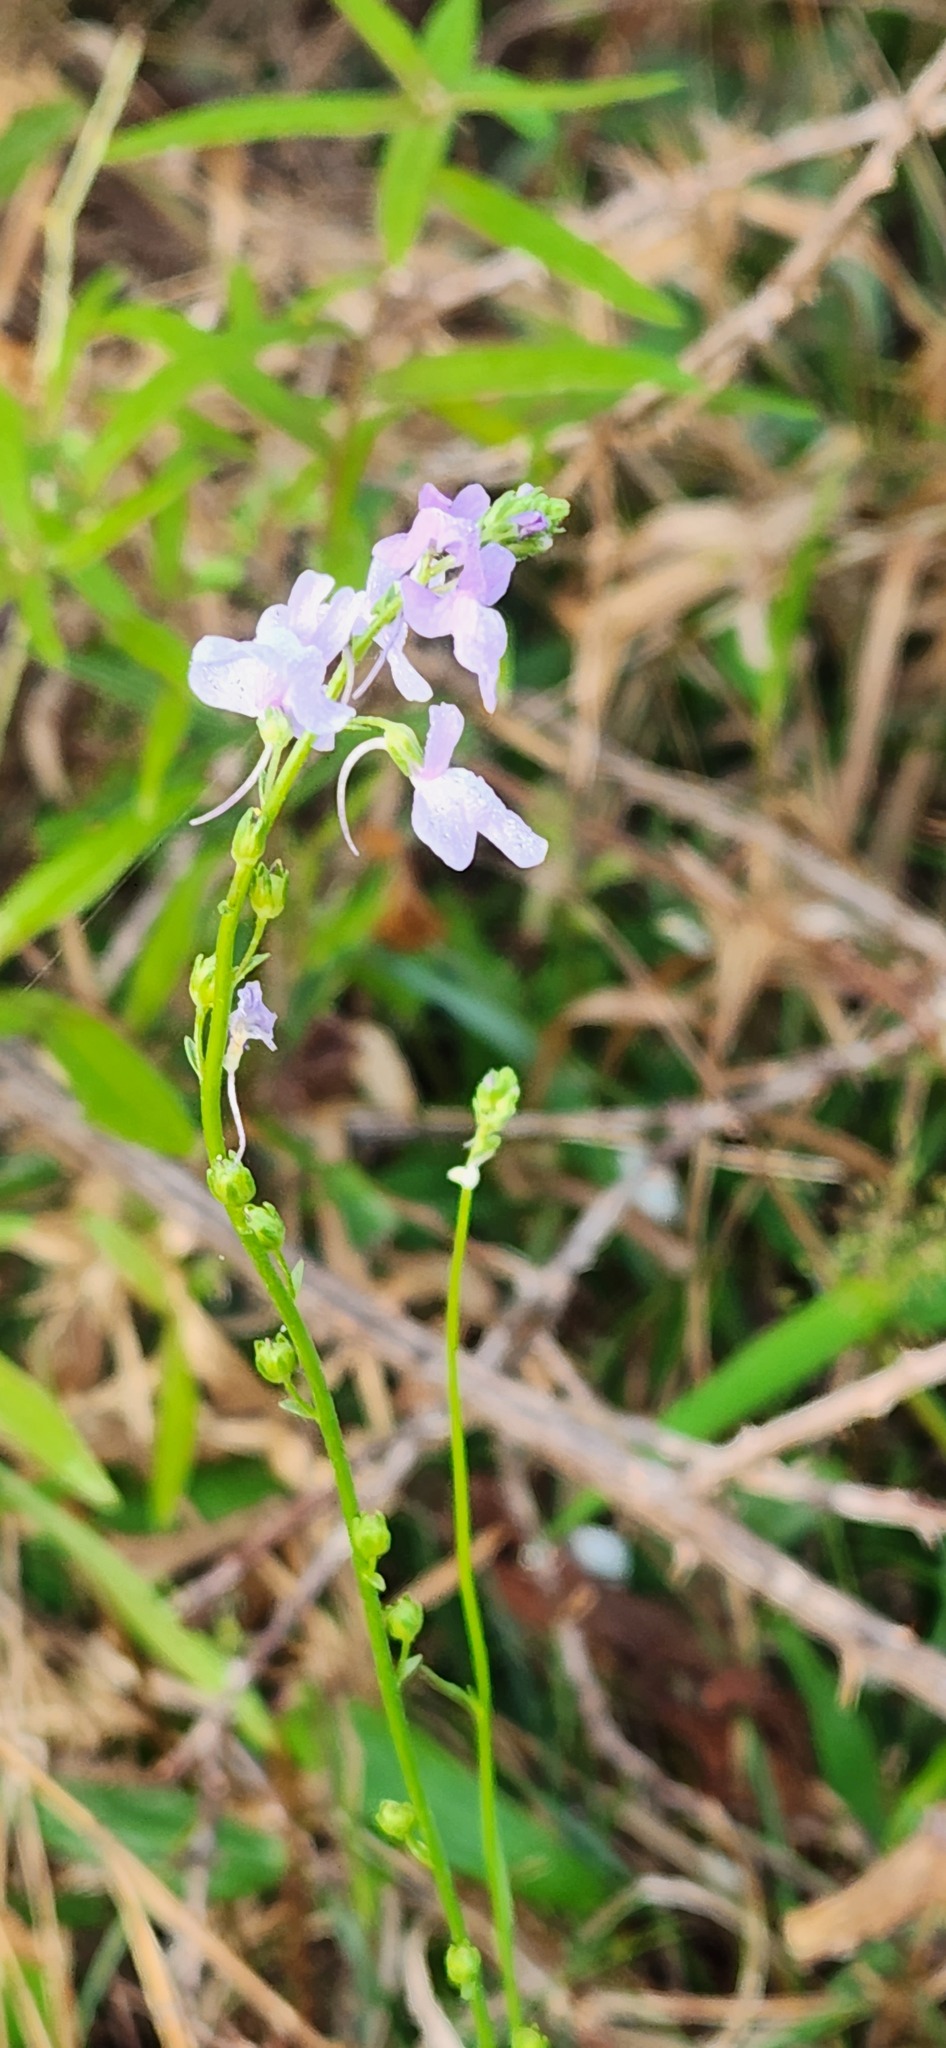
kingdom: Plantae
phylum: Tracheophyta
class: Magnoliopsida
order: Lamiales
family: Plantaginaceae
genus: Nuttallanthus
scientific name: Nuttallanthus canadensis
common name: Blue toadflax
